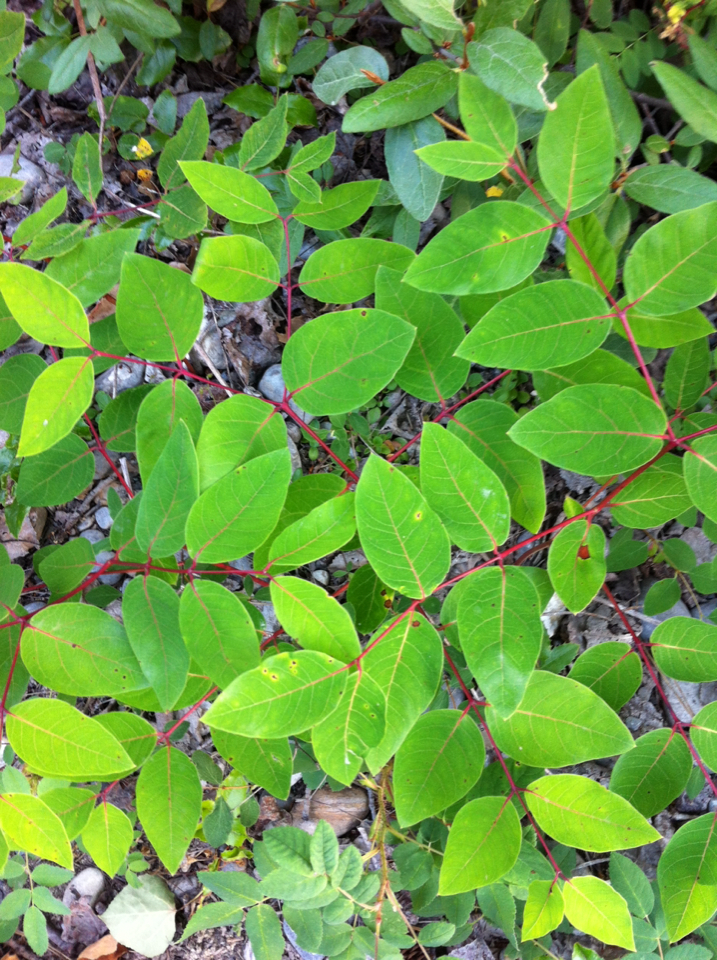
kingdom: Plantae
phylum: Tracheophyta
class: Magnoliopsida
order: Gentianales
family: Apocynaceae
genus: Apocynum
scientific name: Apocynum androsaemifolium
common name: Spreading dogbane
